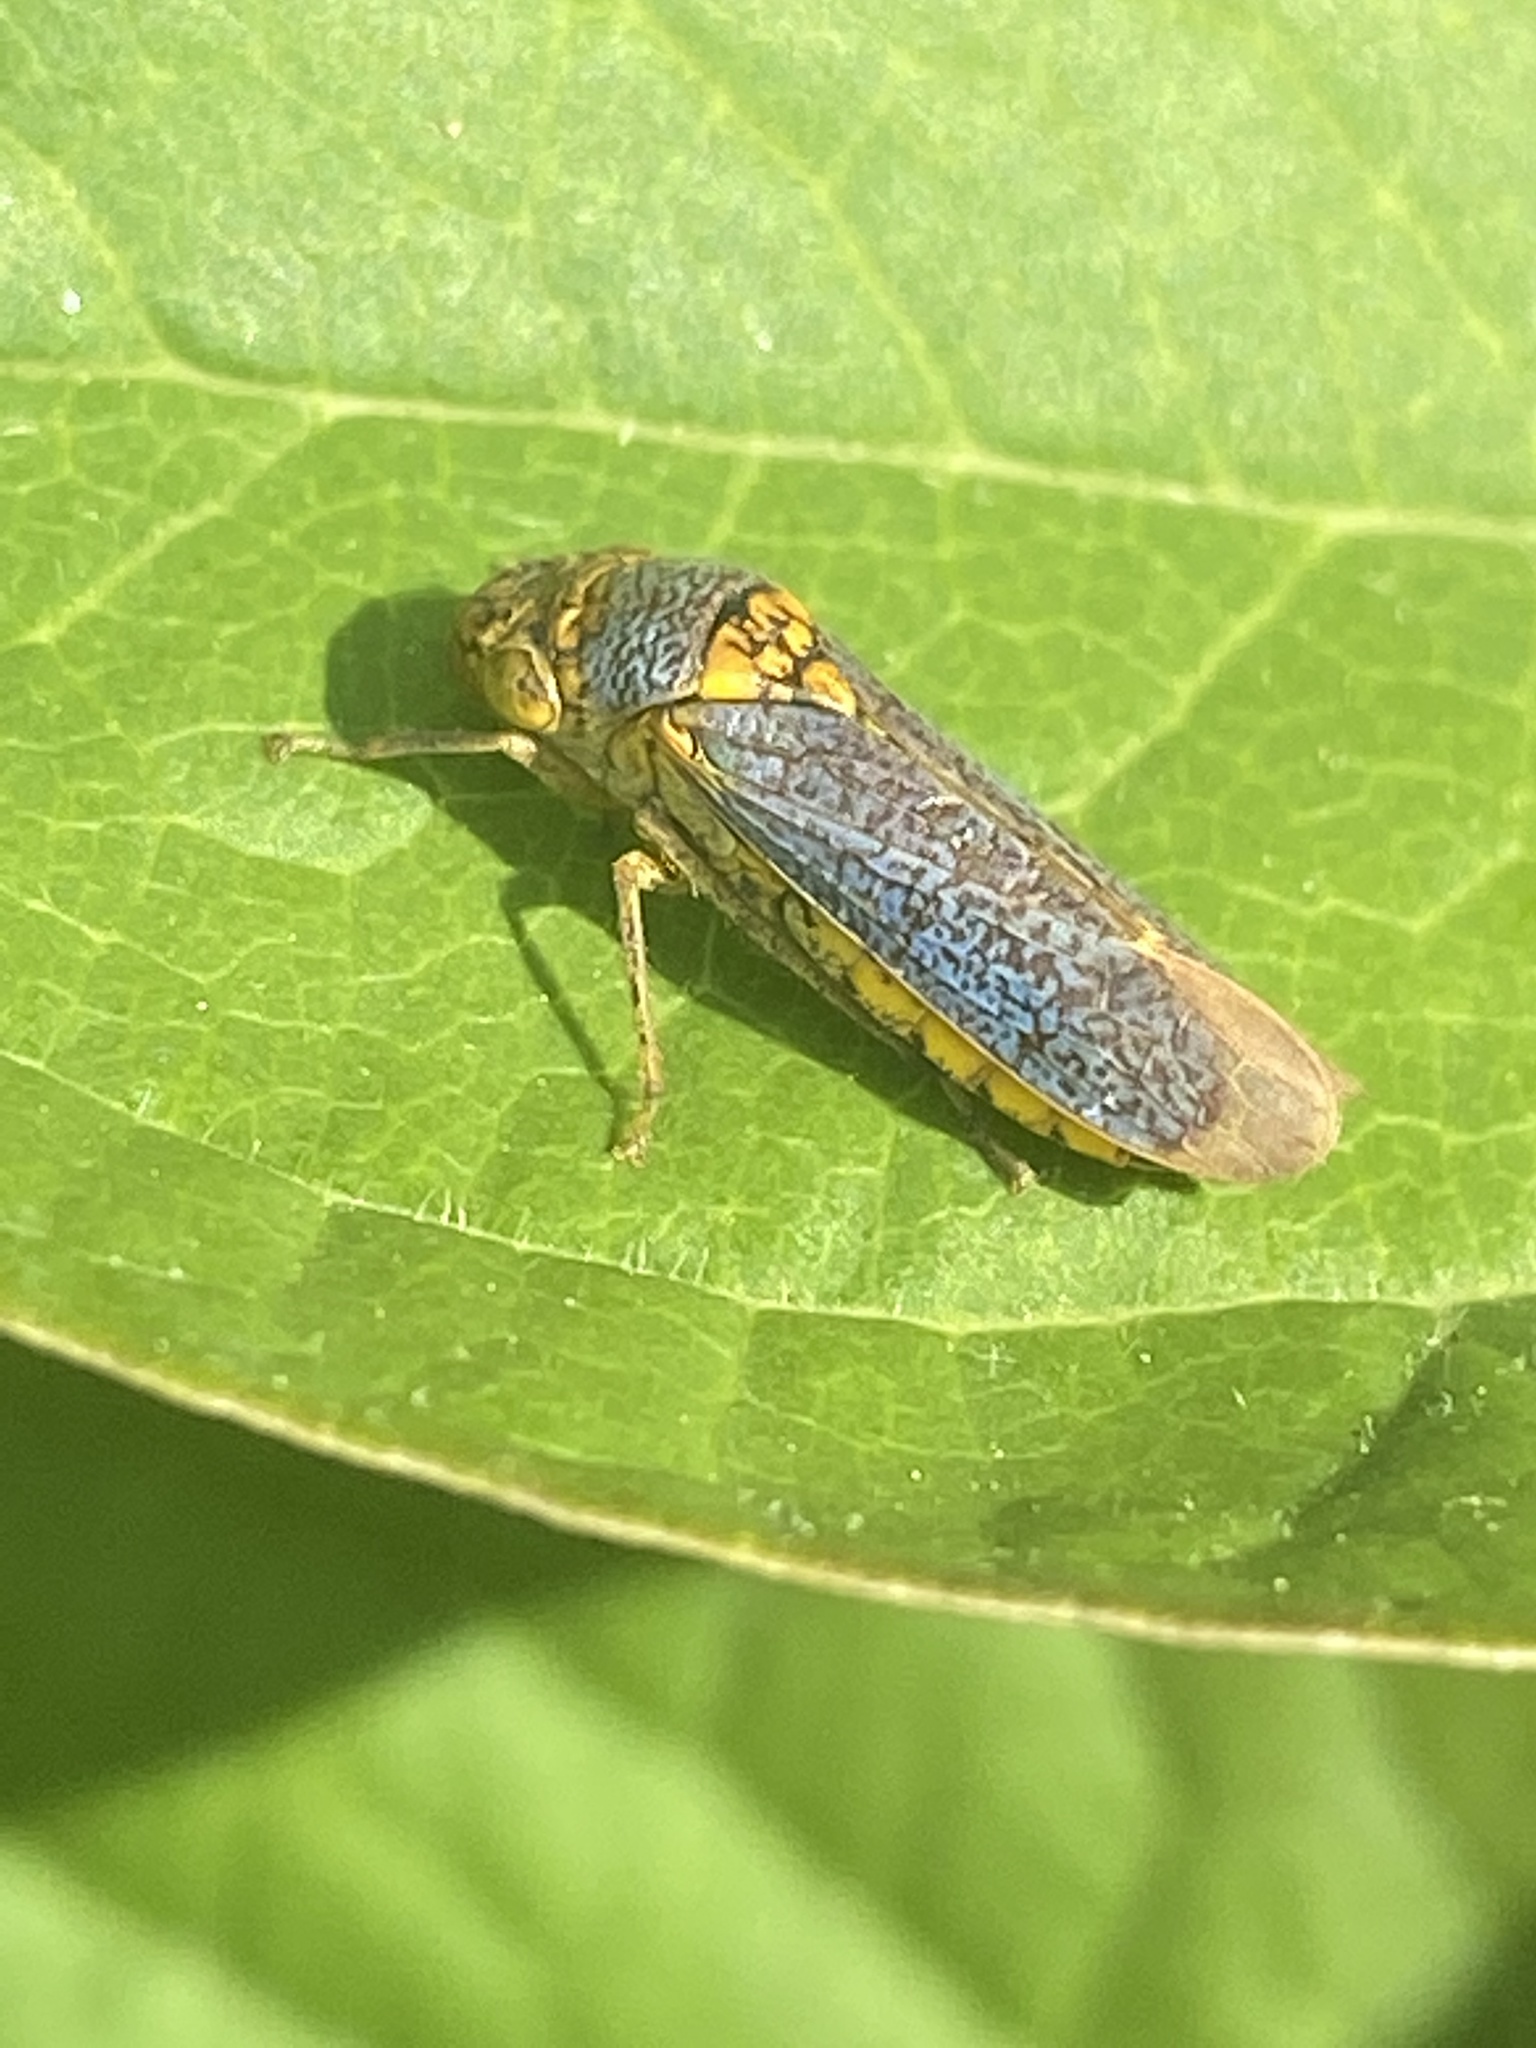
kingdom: Animalia
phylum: Arthropoda
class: Insecta
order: Hemiptera
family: Cicadellidae
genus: Oncometopia
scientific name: Oncometopia orbona
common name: Broad-headed sharpshooter
